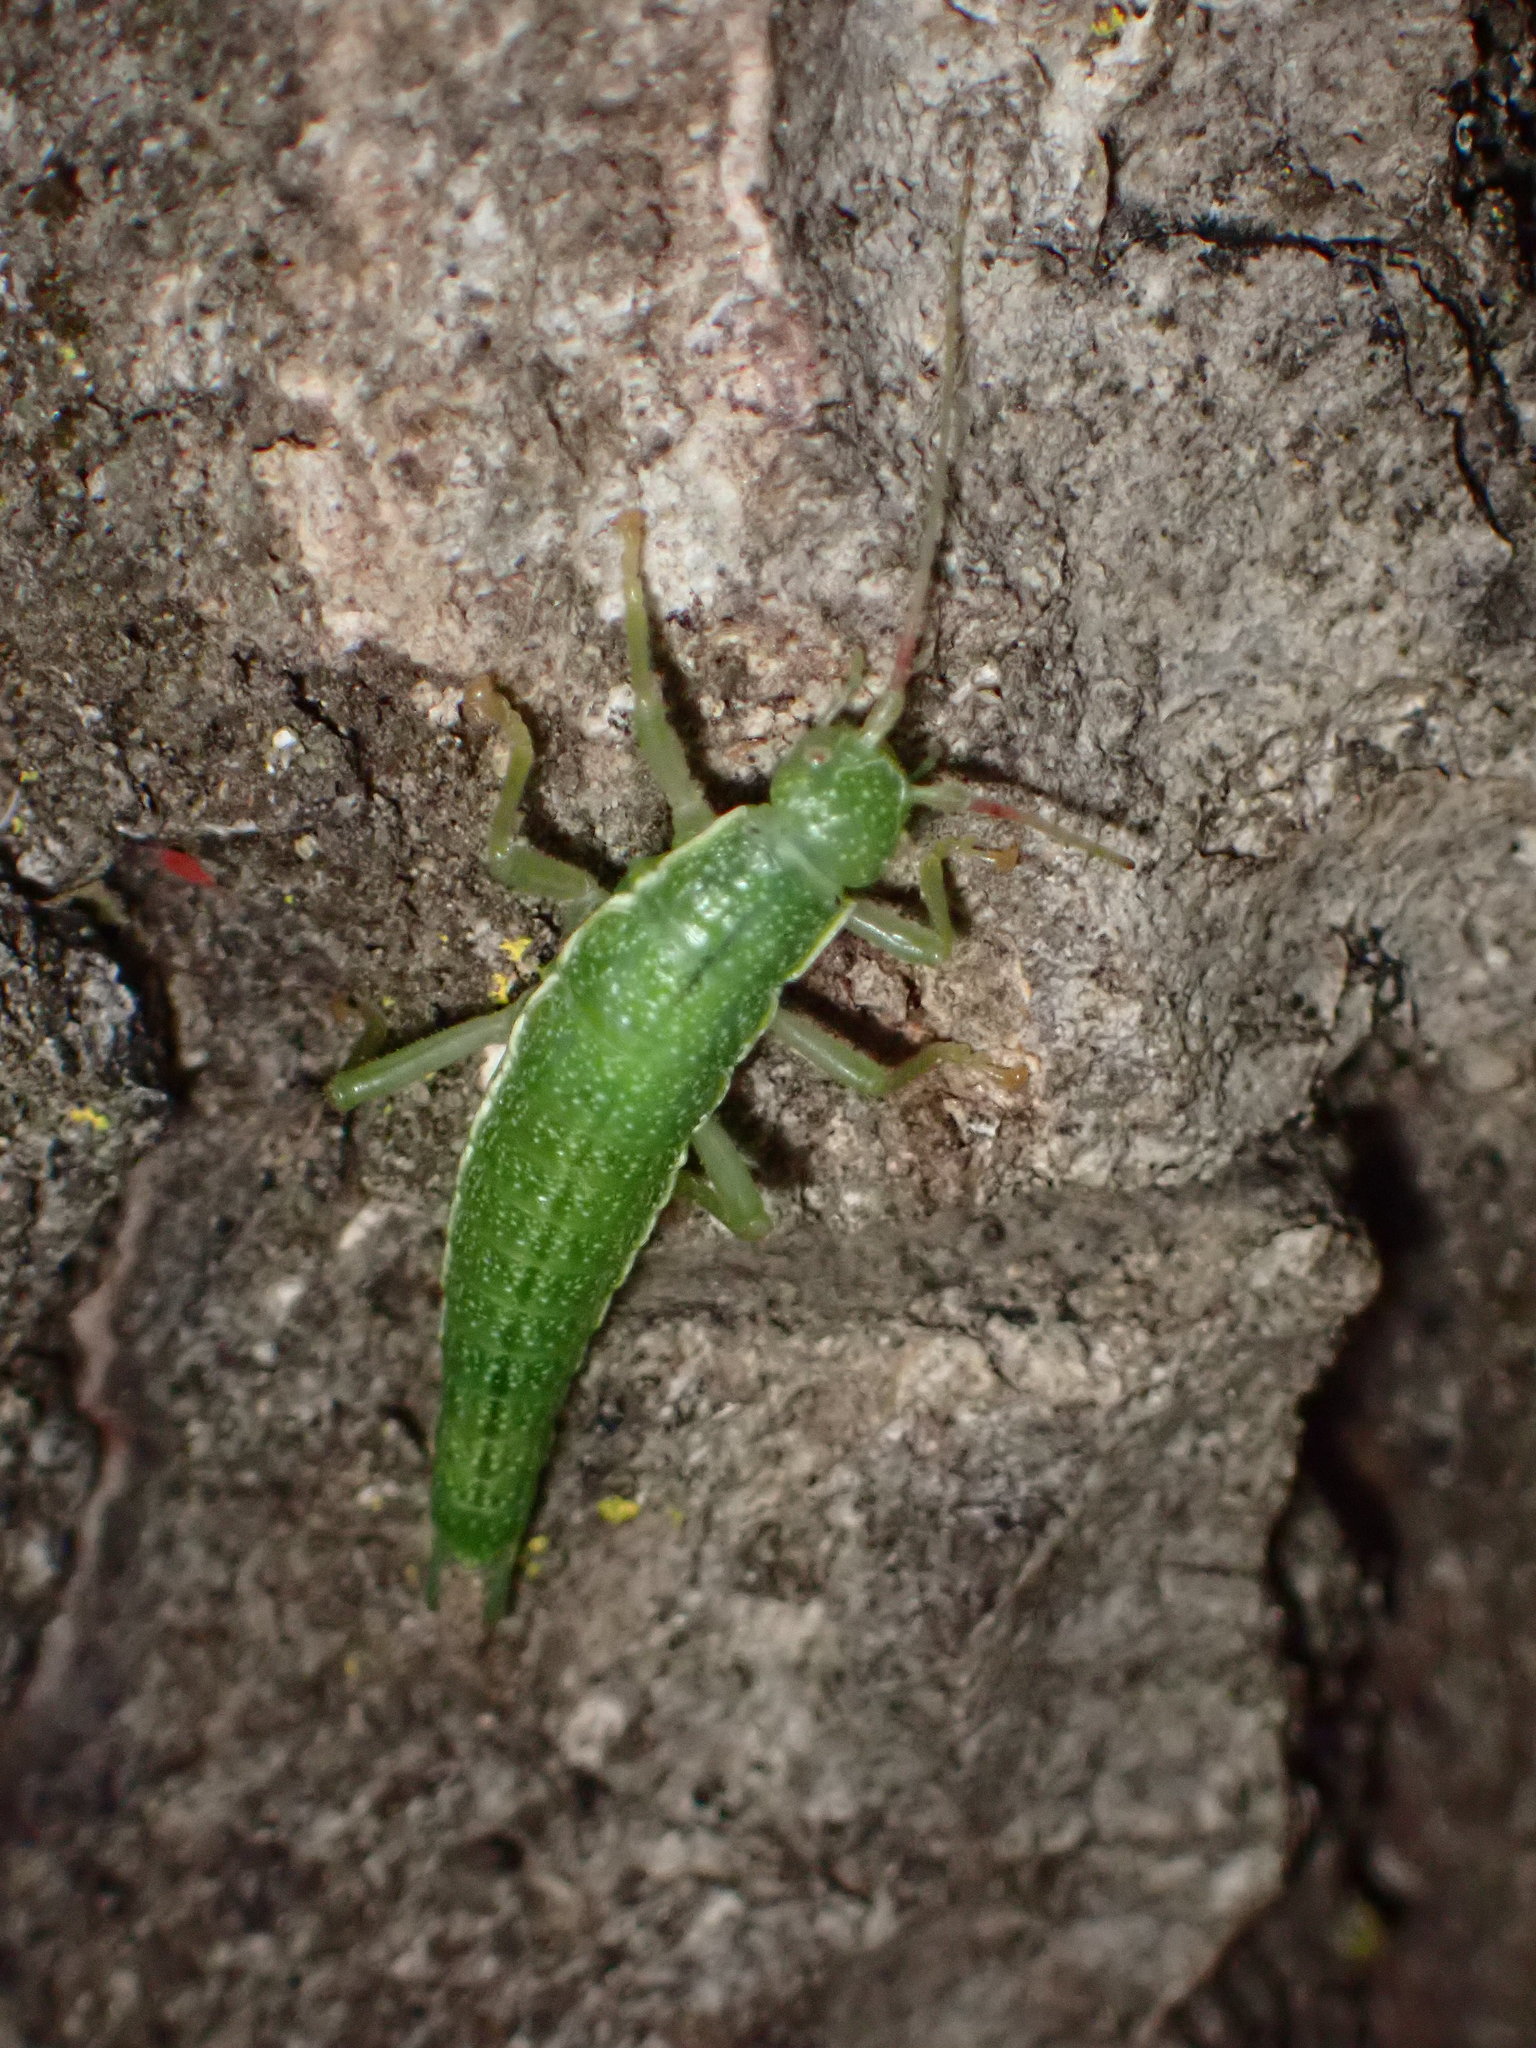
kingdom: Animalia
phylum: Arthropoda
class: Insecta
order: Phasmida
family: Timematidae
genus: Timema
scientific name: Timema californicum
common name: California timema
